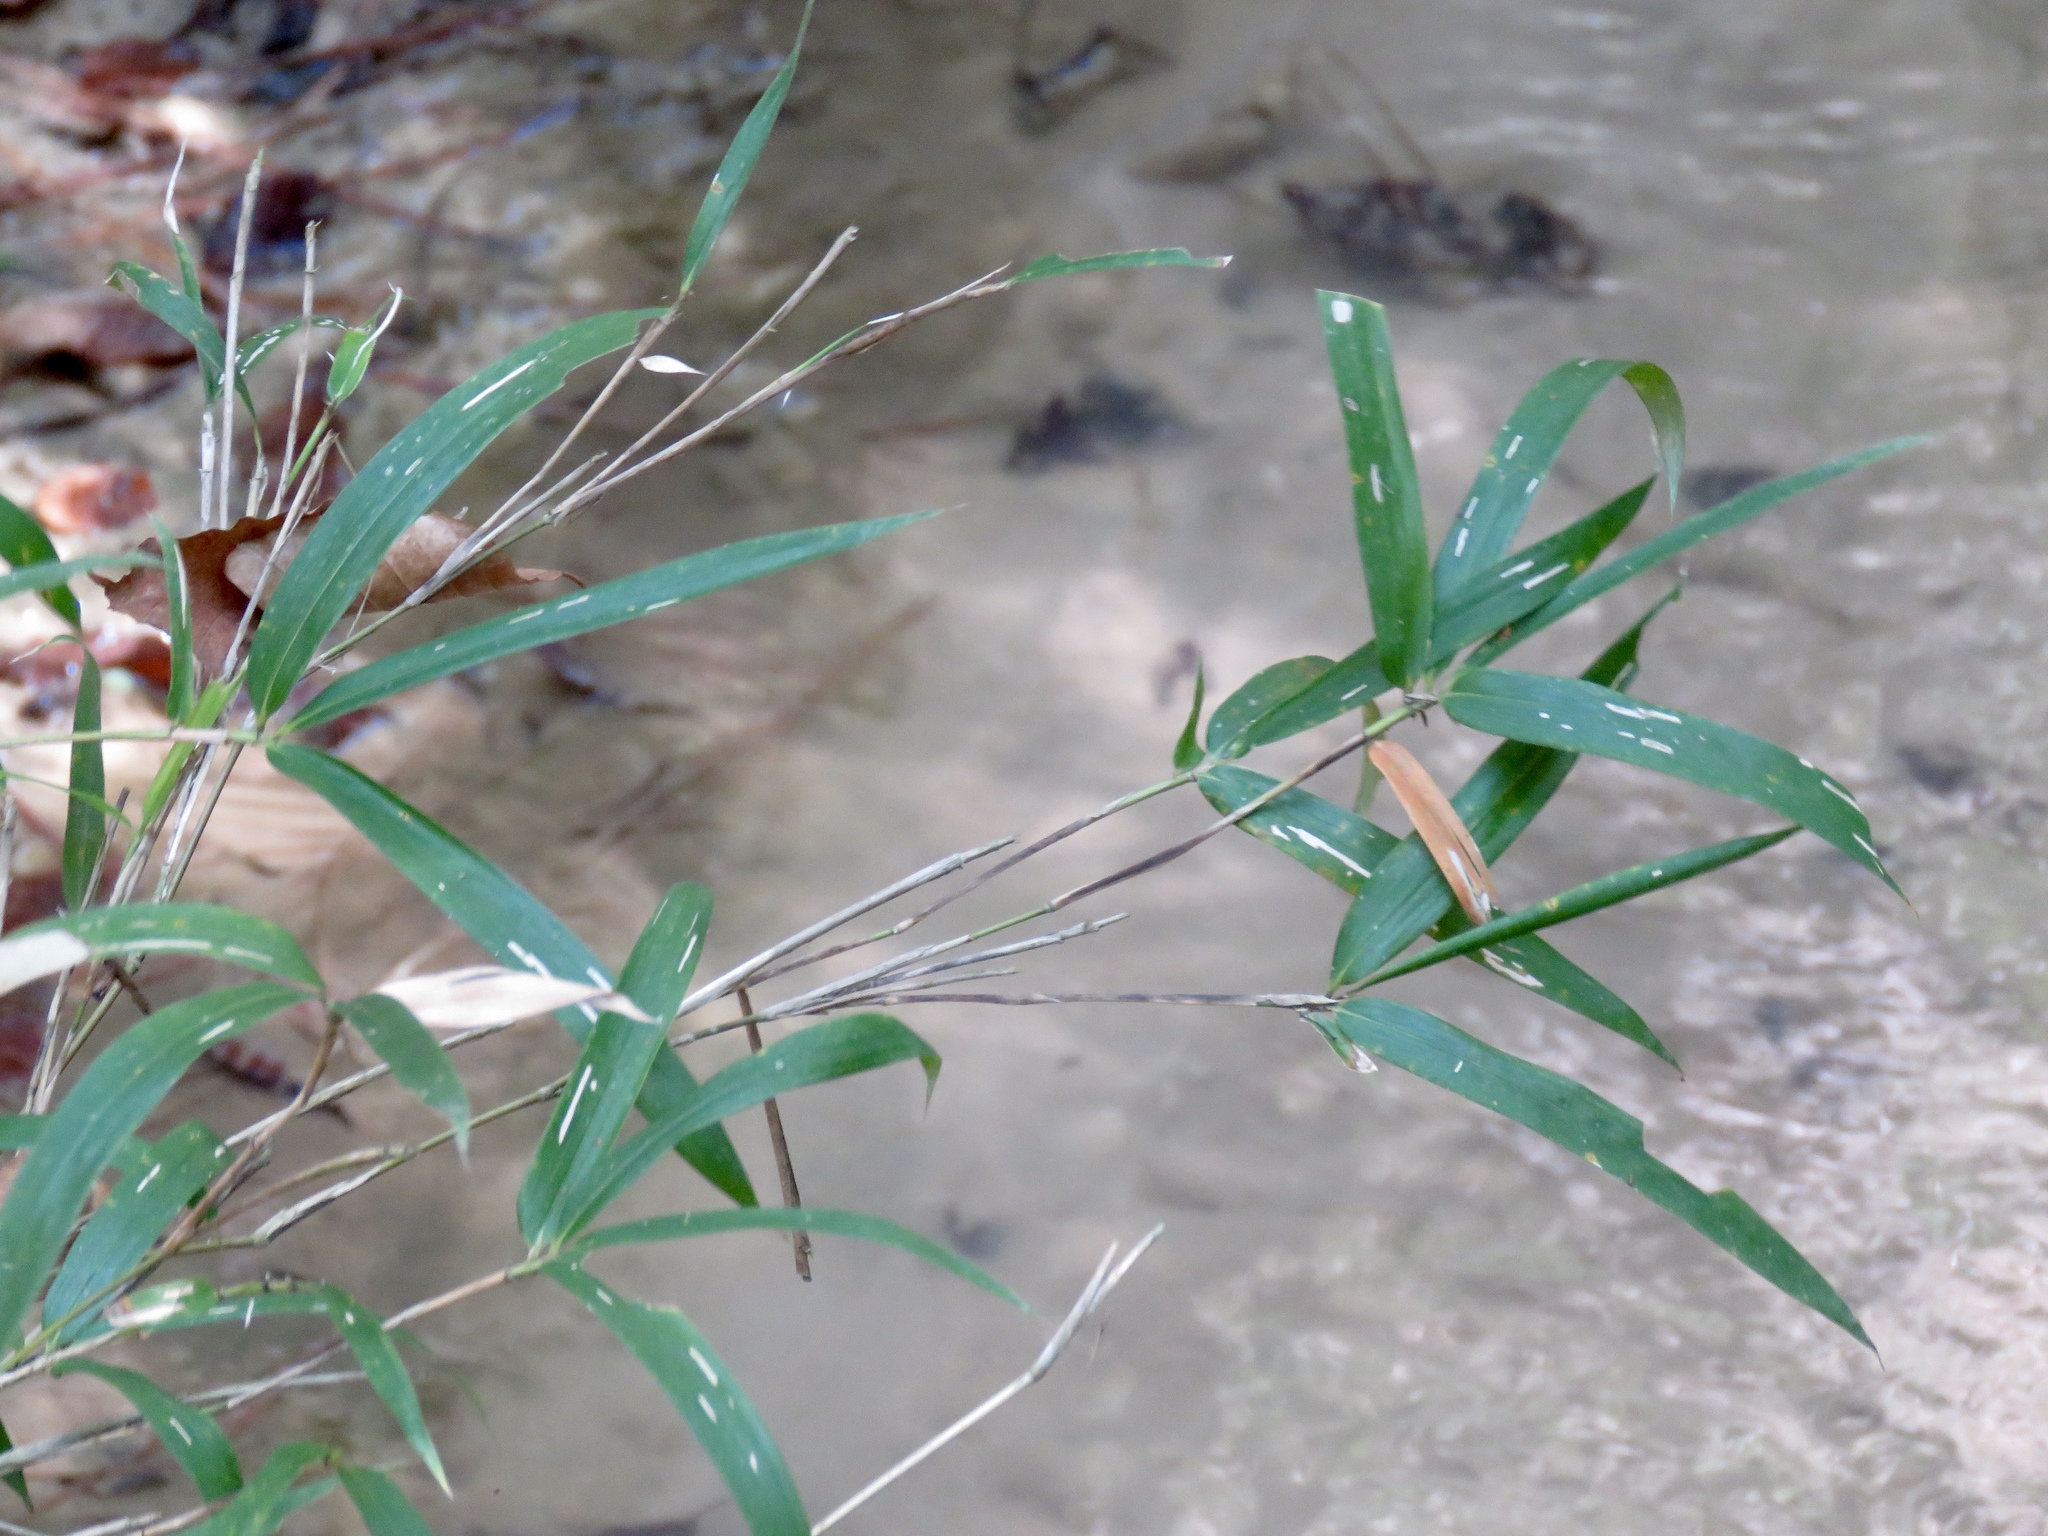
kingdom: Plantae
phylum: Tracheophyta
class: Liliopsida
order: Poales
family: Poaceae
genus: Arundinaria
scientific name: Arundinaria gigantea
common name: Giant cane
